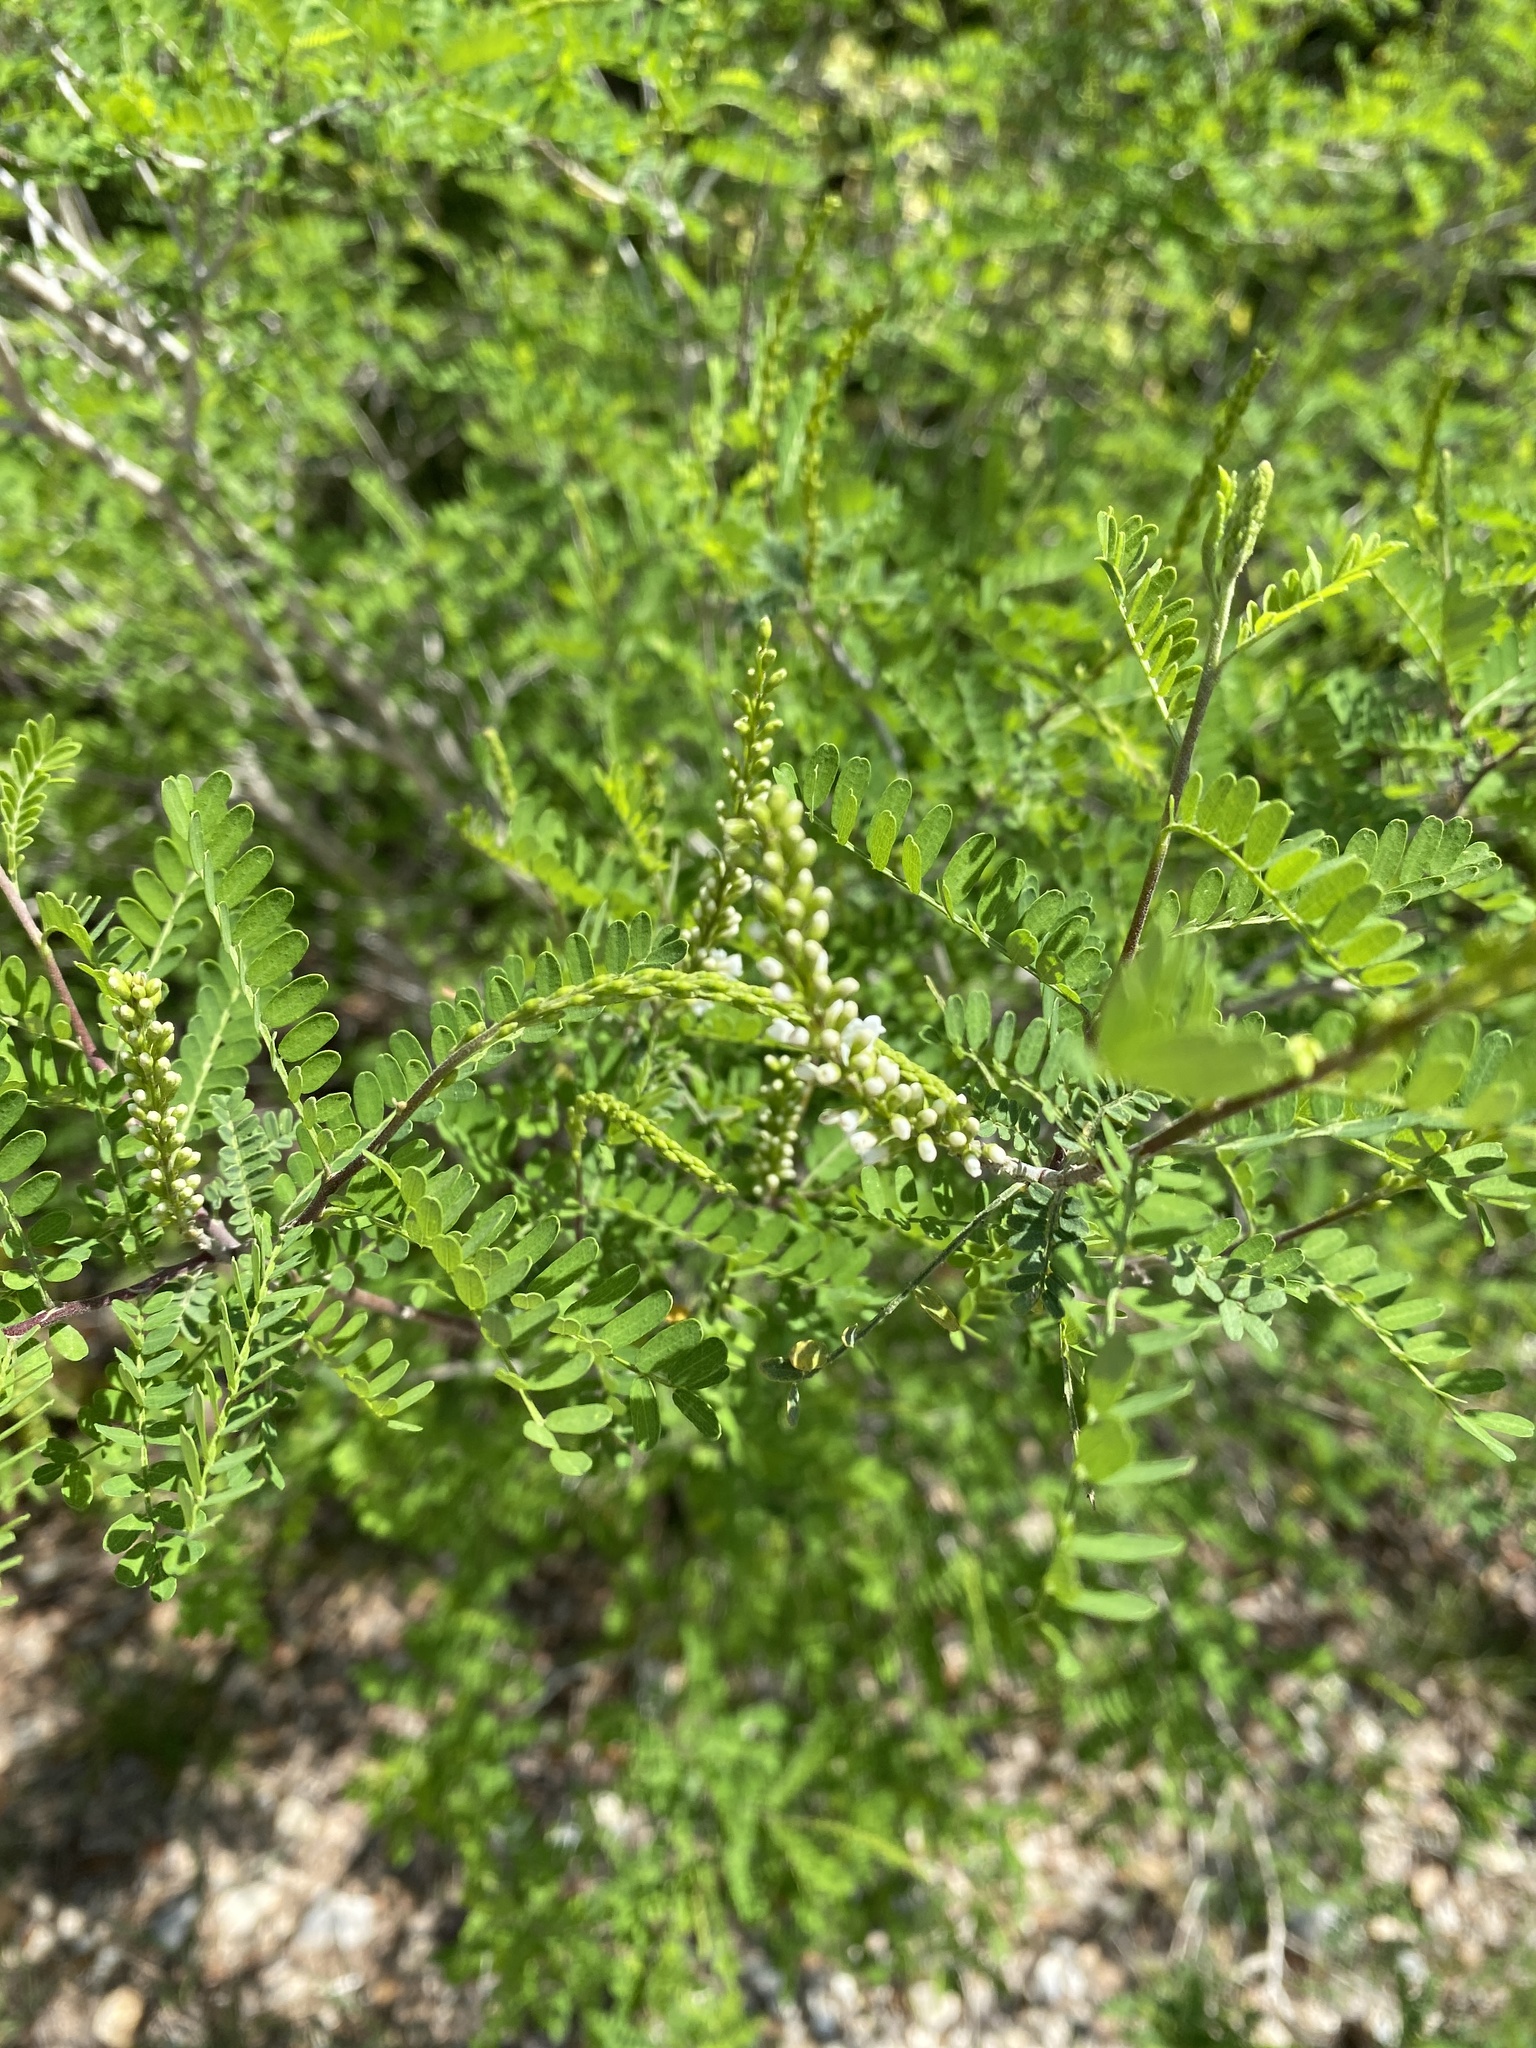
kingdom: Plantae
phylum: Tracheophyta
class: Magnoliopsida
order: Fabales
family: Fabaceae
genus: Eysenhardtia
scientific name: Eysenhardtia texana
